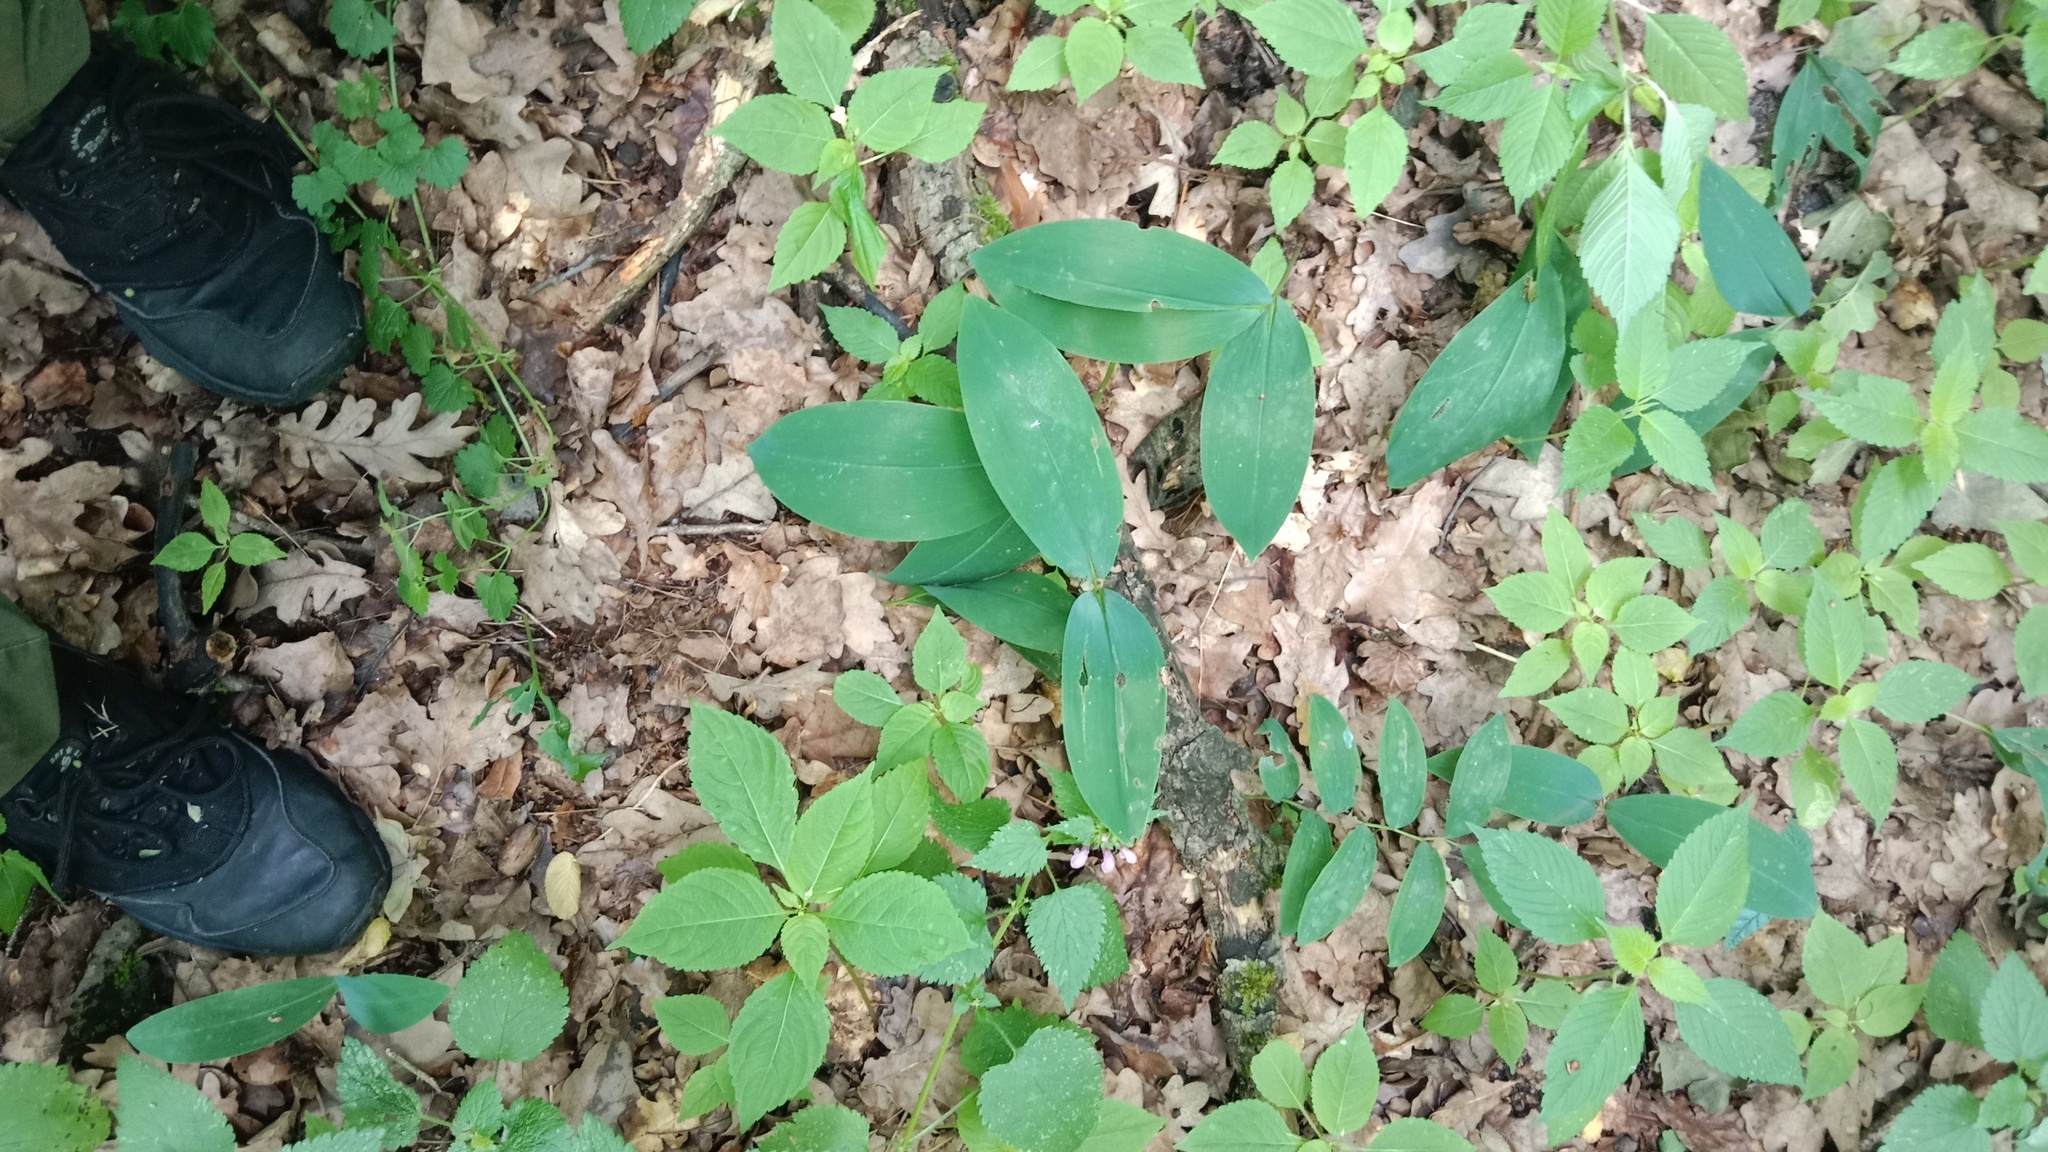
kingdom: Plantae
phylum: Tracheophyta
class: Liliopsida
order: Asparagales
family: Asparagaceae
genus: Convallaria
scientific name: Convallaria majalis
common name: Lily-of-the-valley
